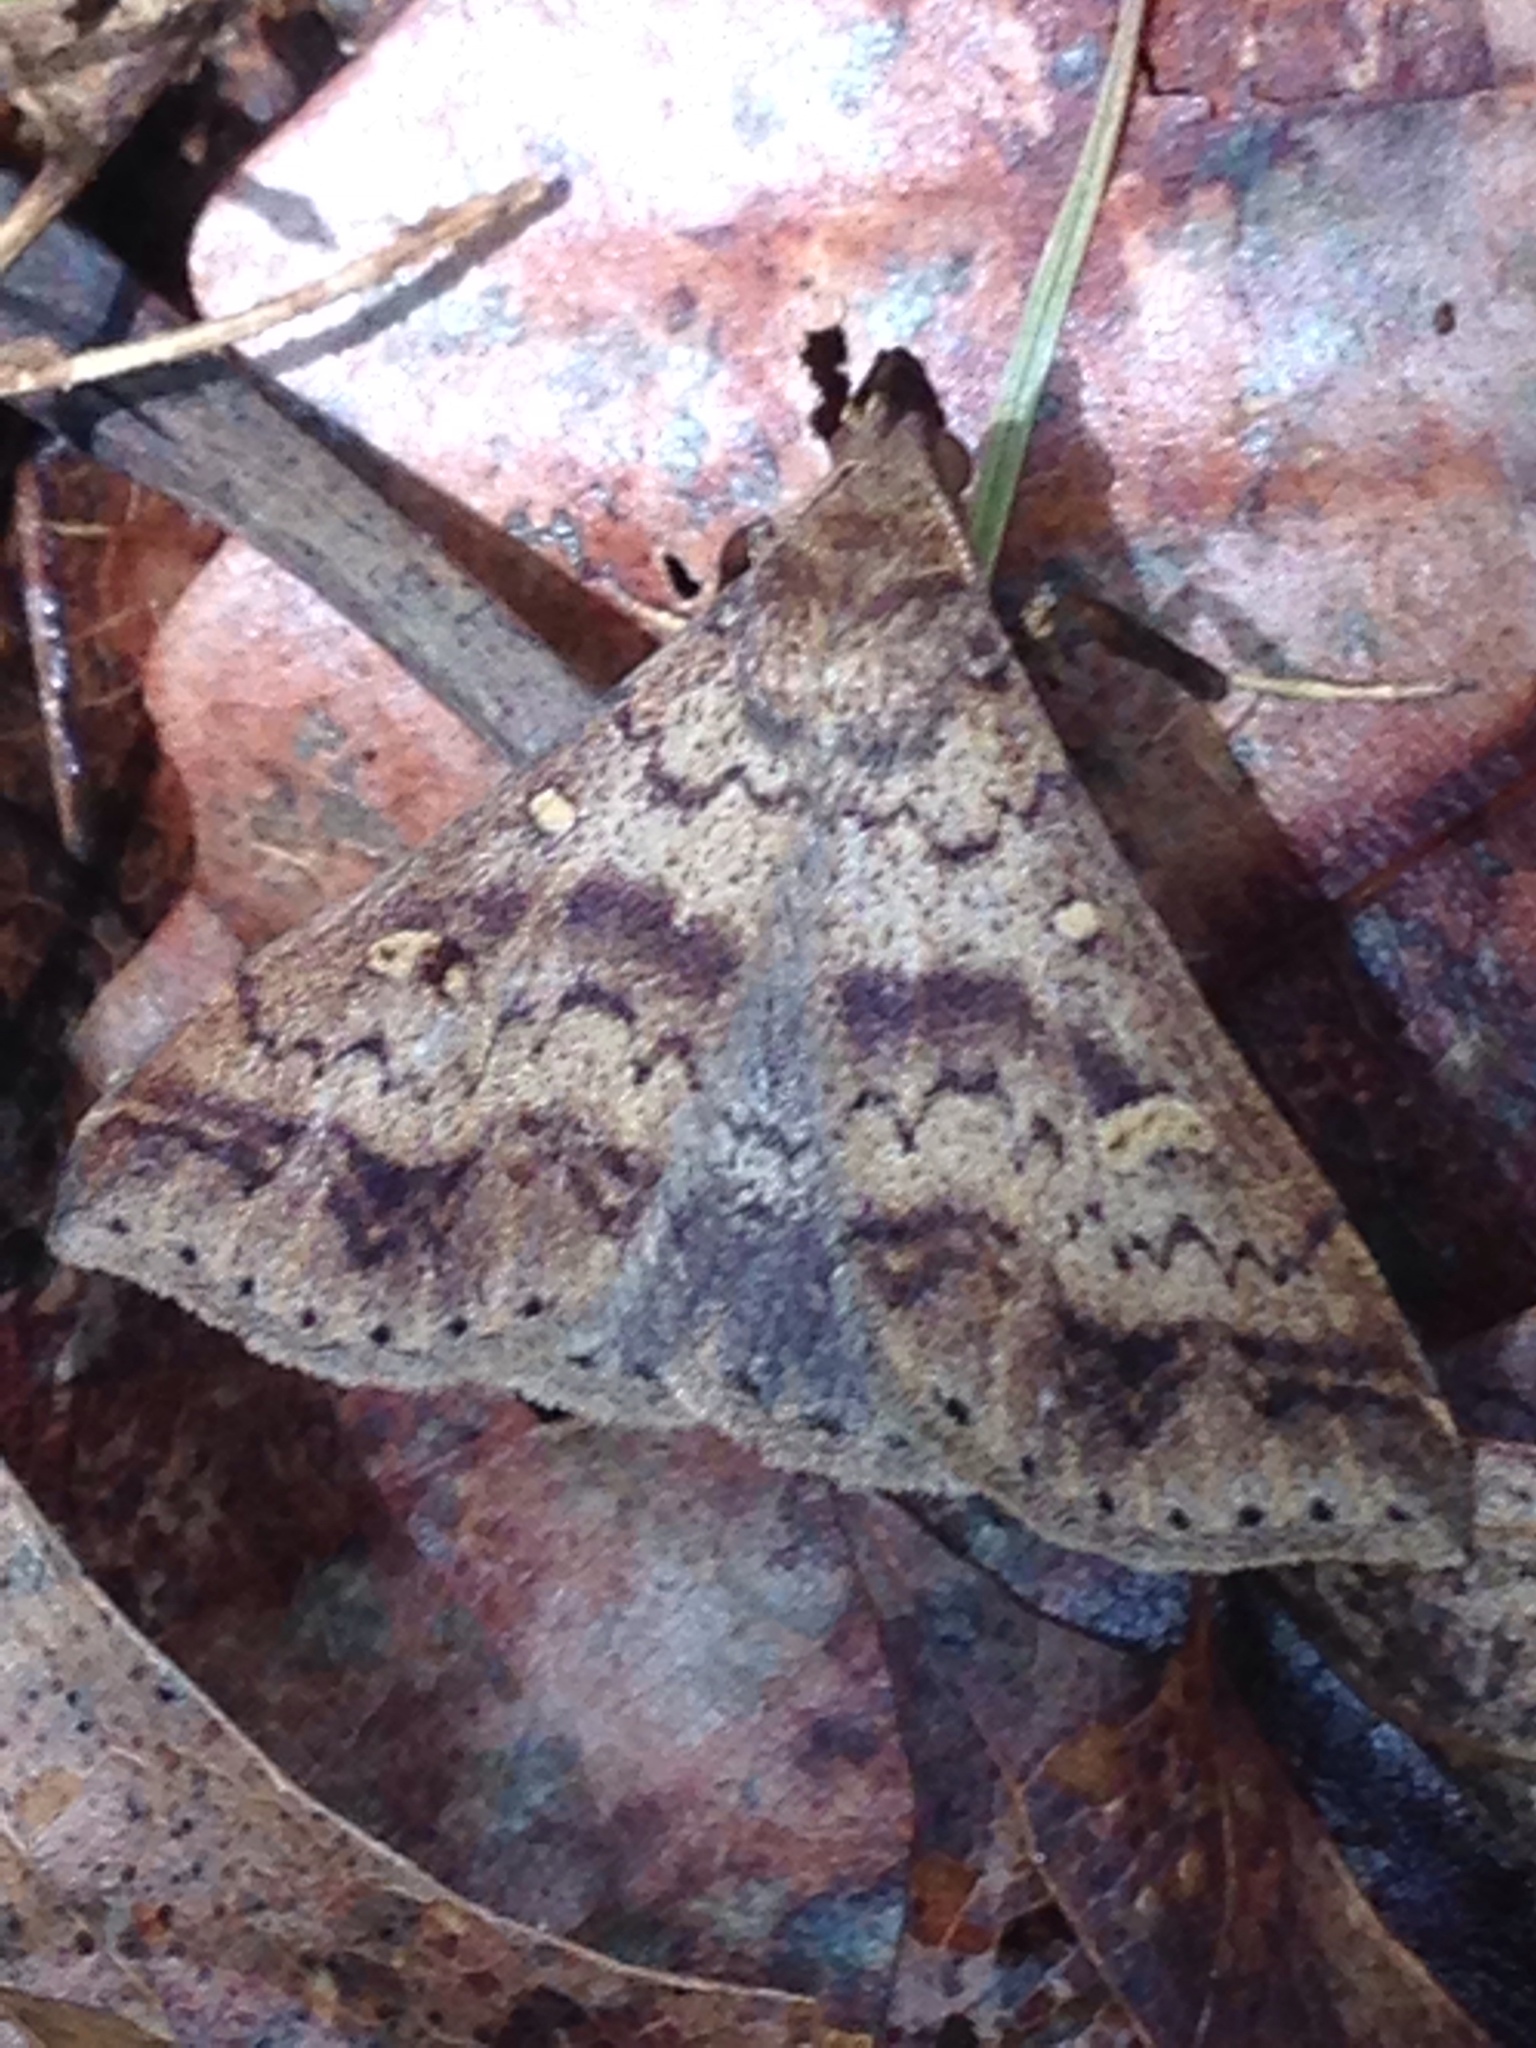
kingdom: Animalia
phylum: Arthropoda
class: Insecta
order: Lepidoptera
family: Erebidae
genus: Renia
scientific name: Renia discoloralis
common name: Discolored renia moth
